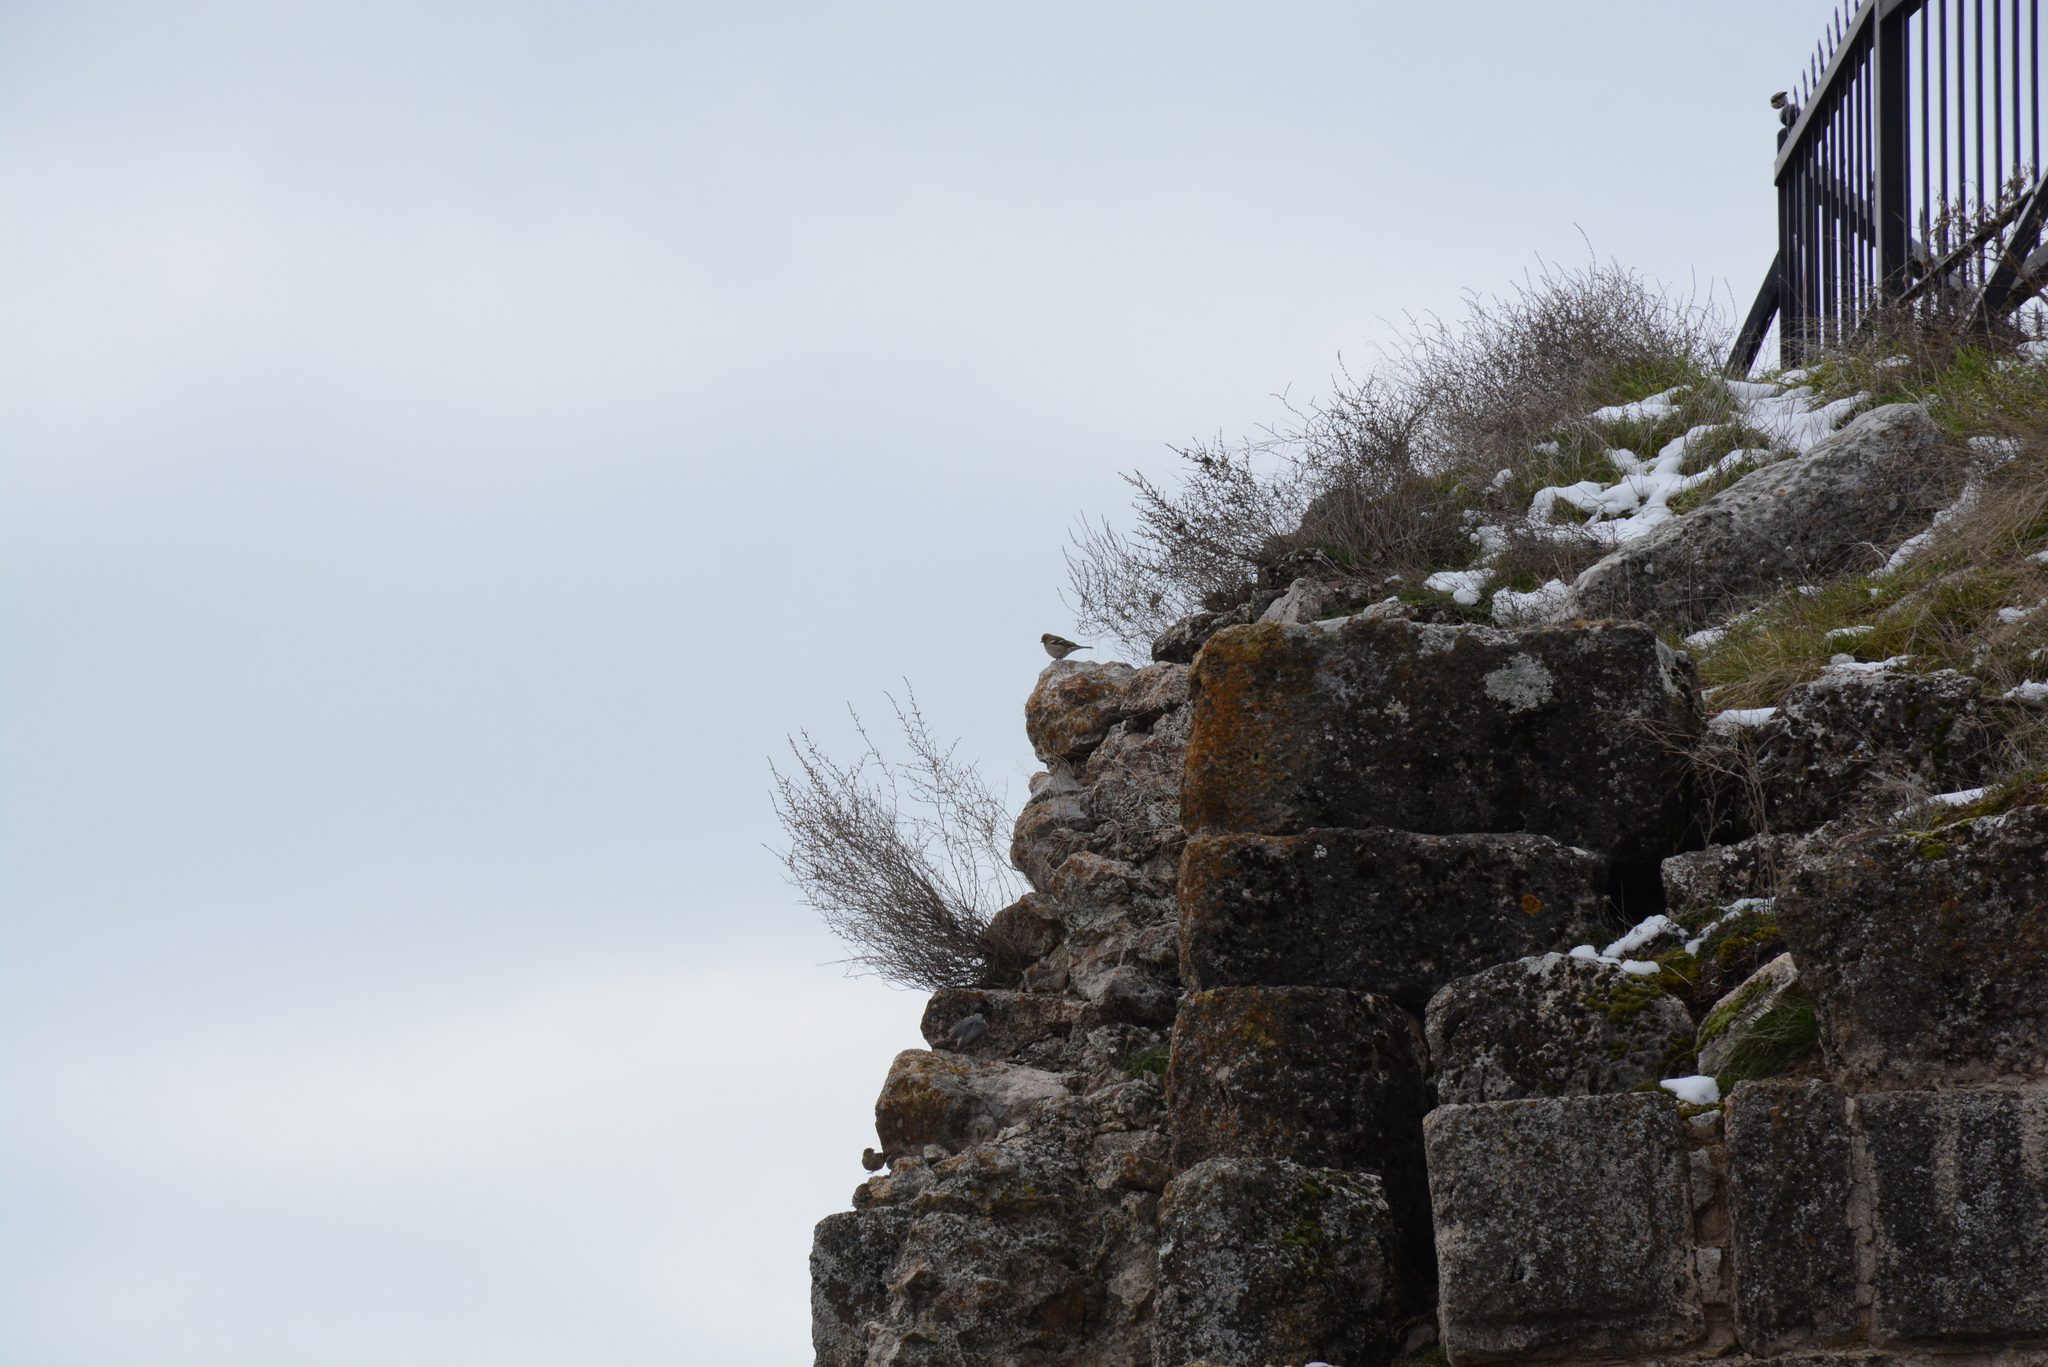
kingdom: Animalia
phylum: Chordata
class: Aves
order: Passeriformes
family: Fringillidae
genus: Fringilla
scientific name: Fringilla coelebs
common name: Common chaffinch
